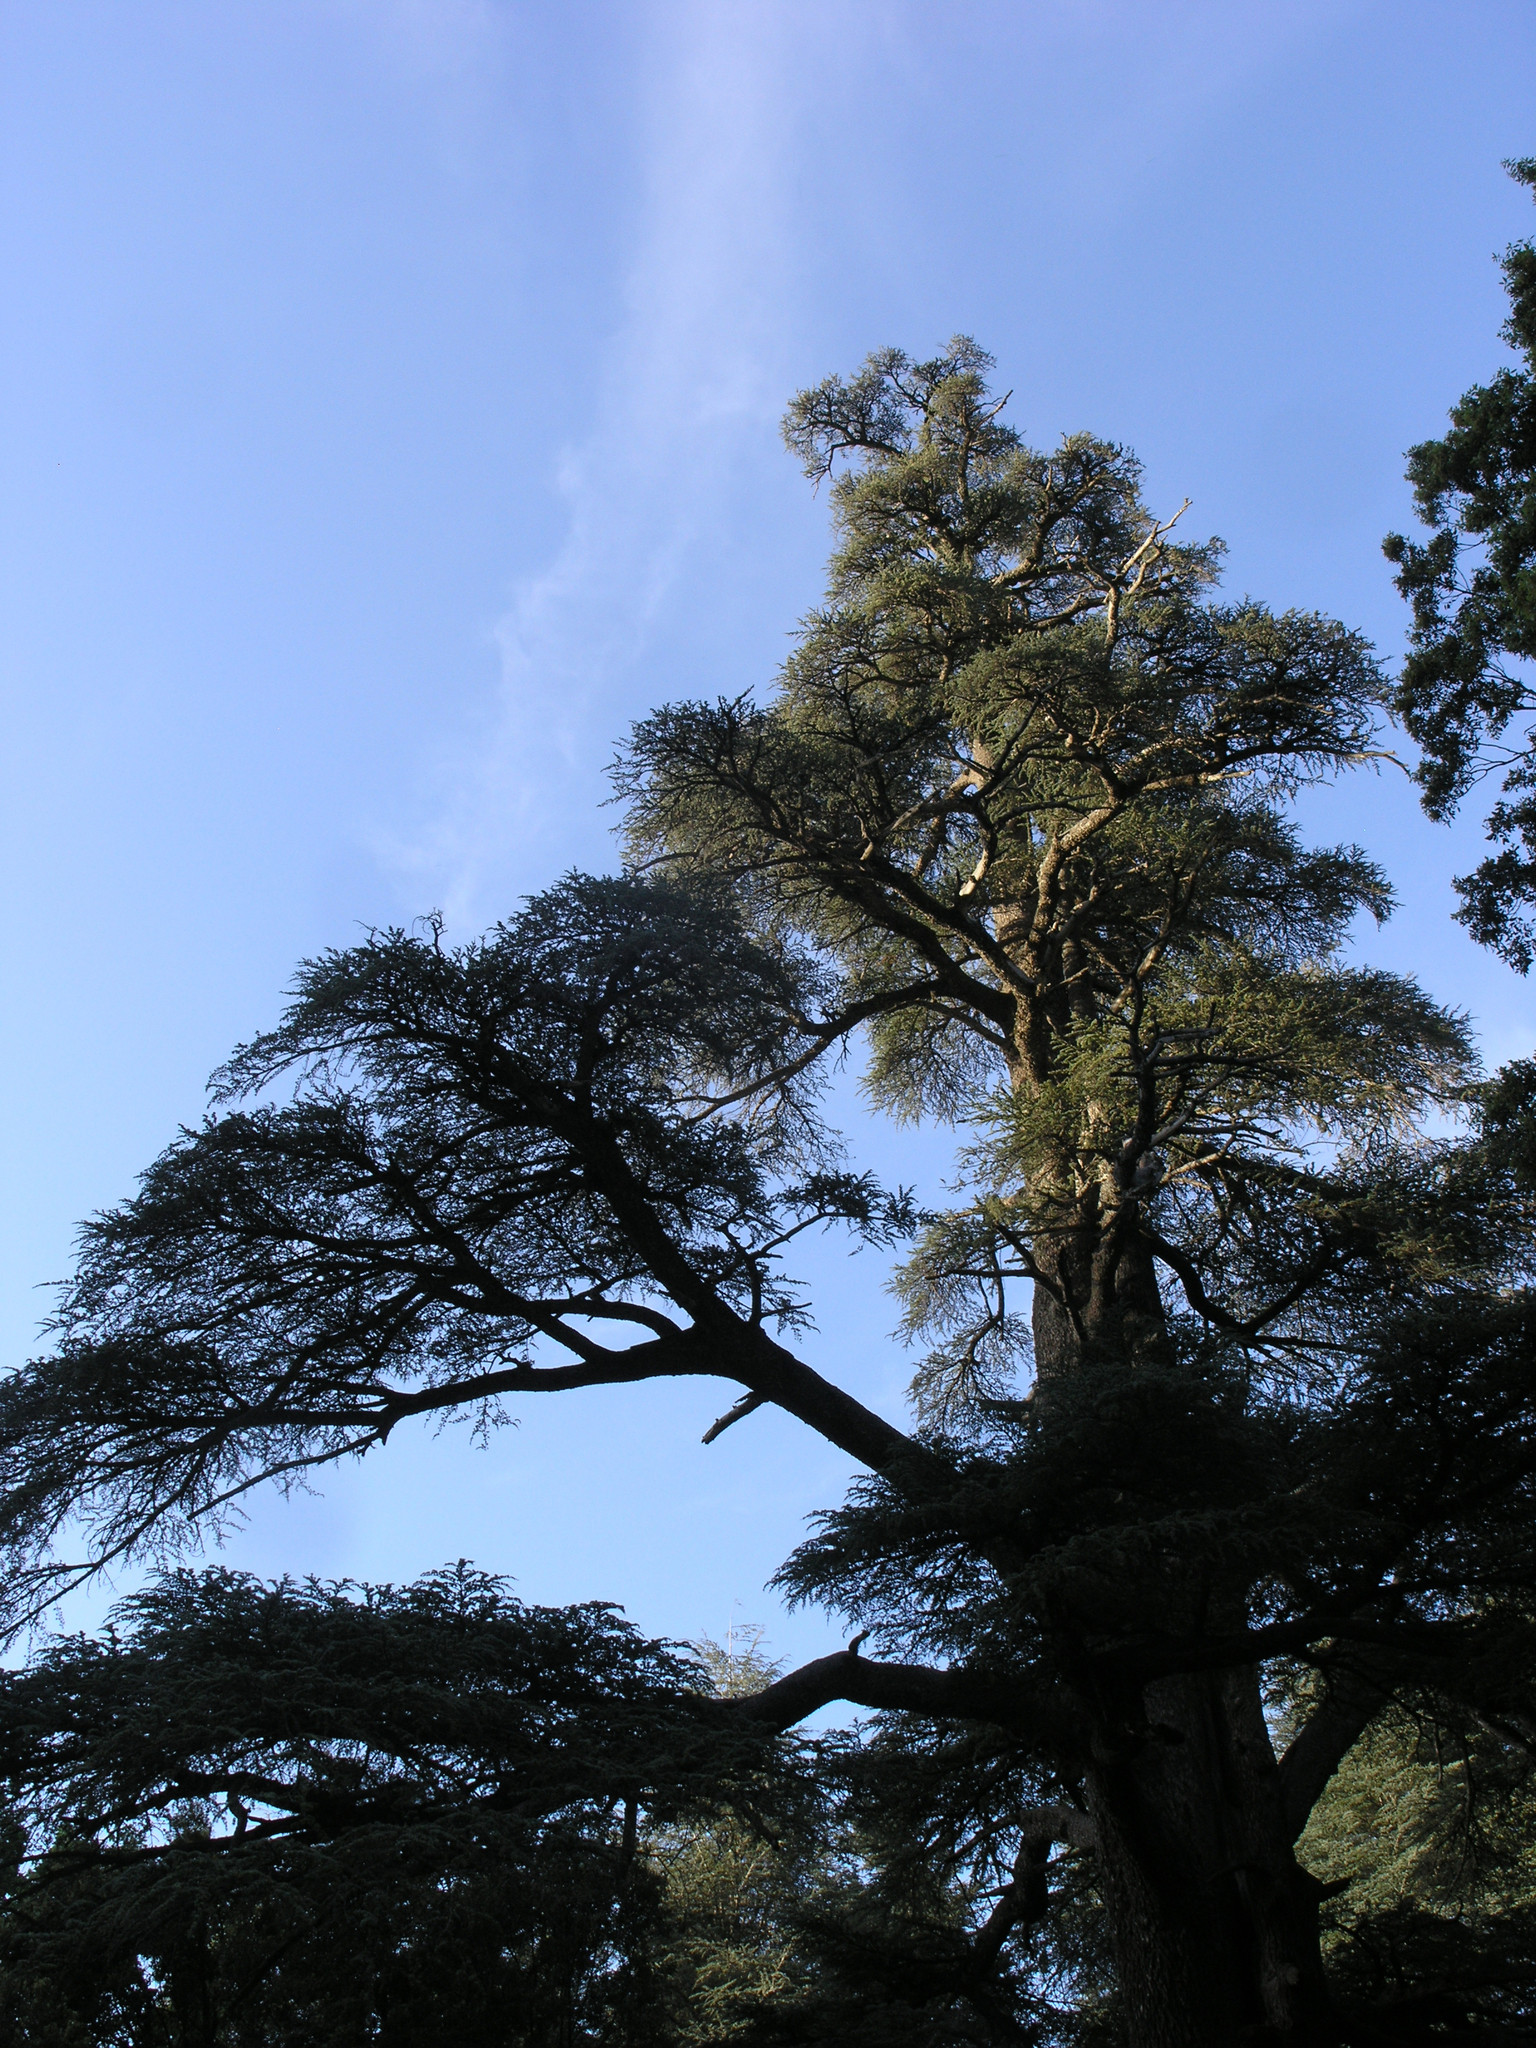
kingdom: Plantae
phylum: Tracheophyta
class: Pinopsida
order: Pinales
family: Pinaceae
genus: Cedrus
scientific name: Cedrus atlantica
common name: Atlas cedar
